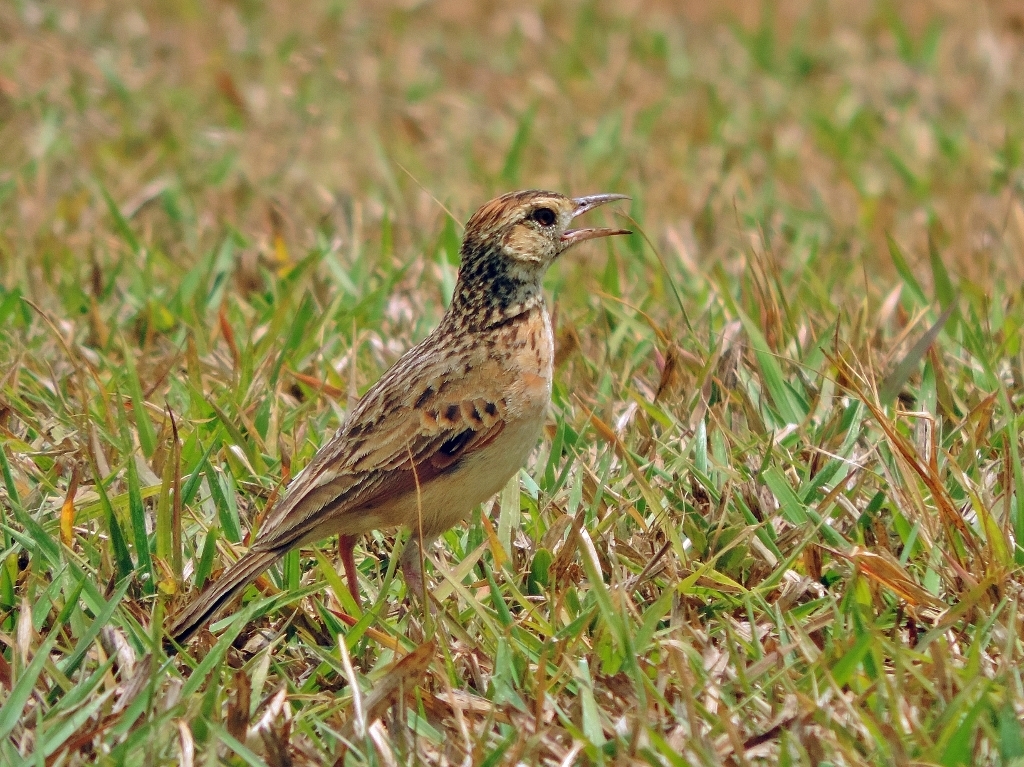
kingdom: Animalia
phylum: Chordata
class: Aves
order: Passeriformes
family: Alaudidae
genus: Mirafra
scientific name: Mirafra africana
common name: Rufous-naped lark
